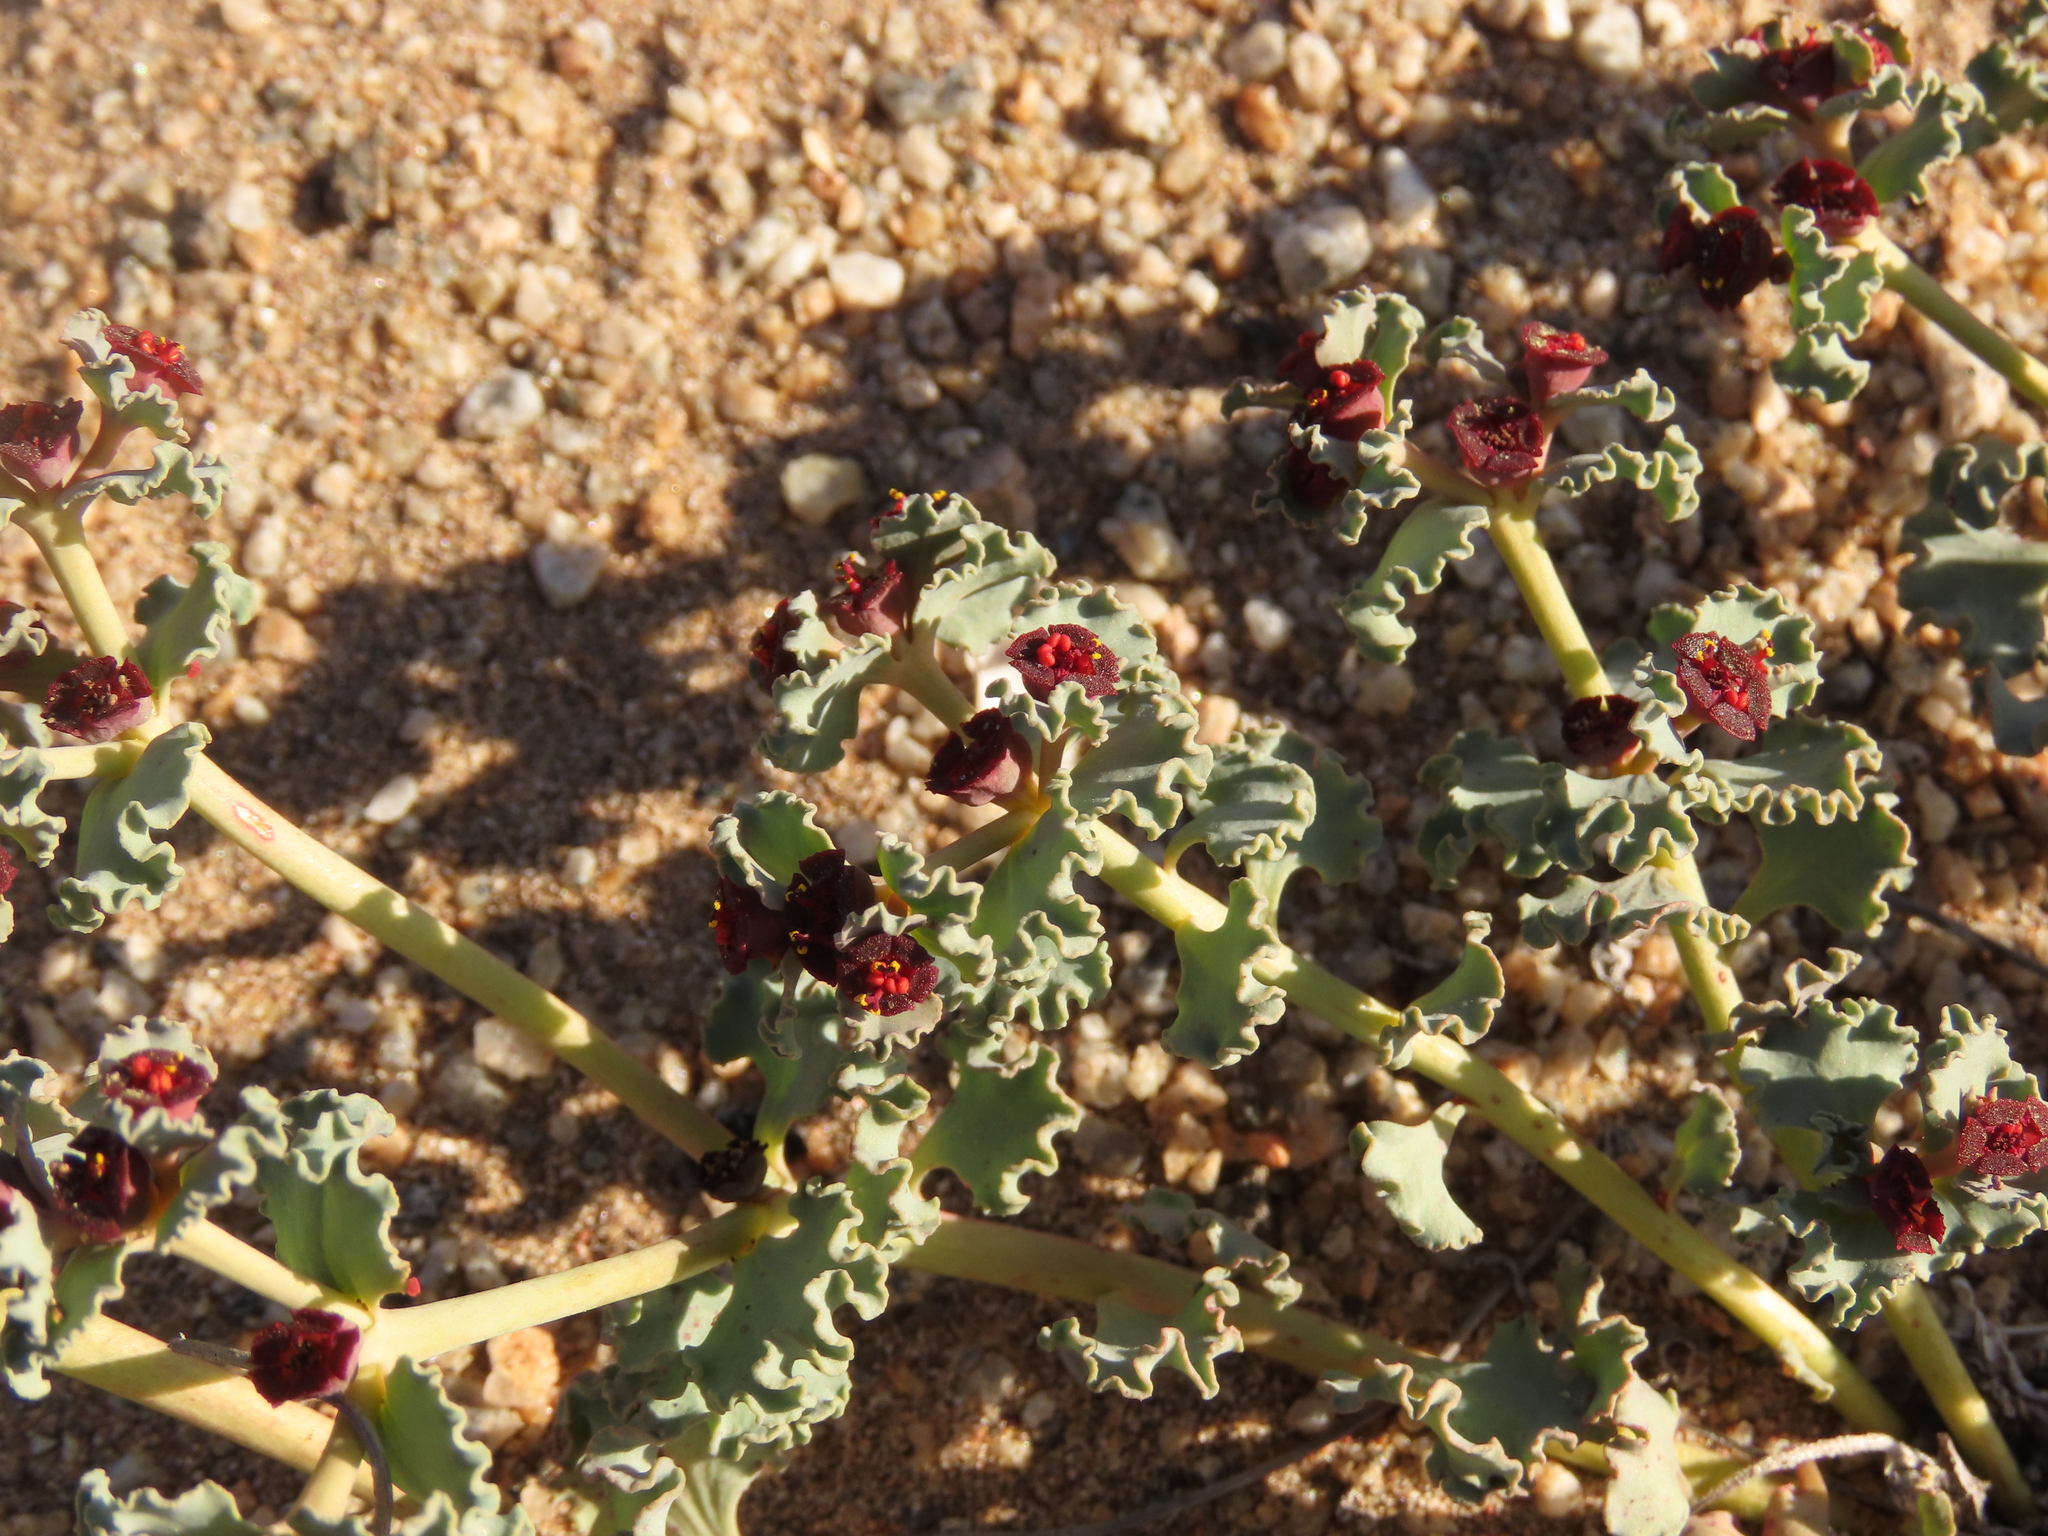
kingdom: Plantae
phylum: Tracheophyta
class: Magnoliopsida
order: Malpighiales
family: Euphorbiaceae
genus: Euphorbia
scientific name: Euphorbia copiapina
